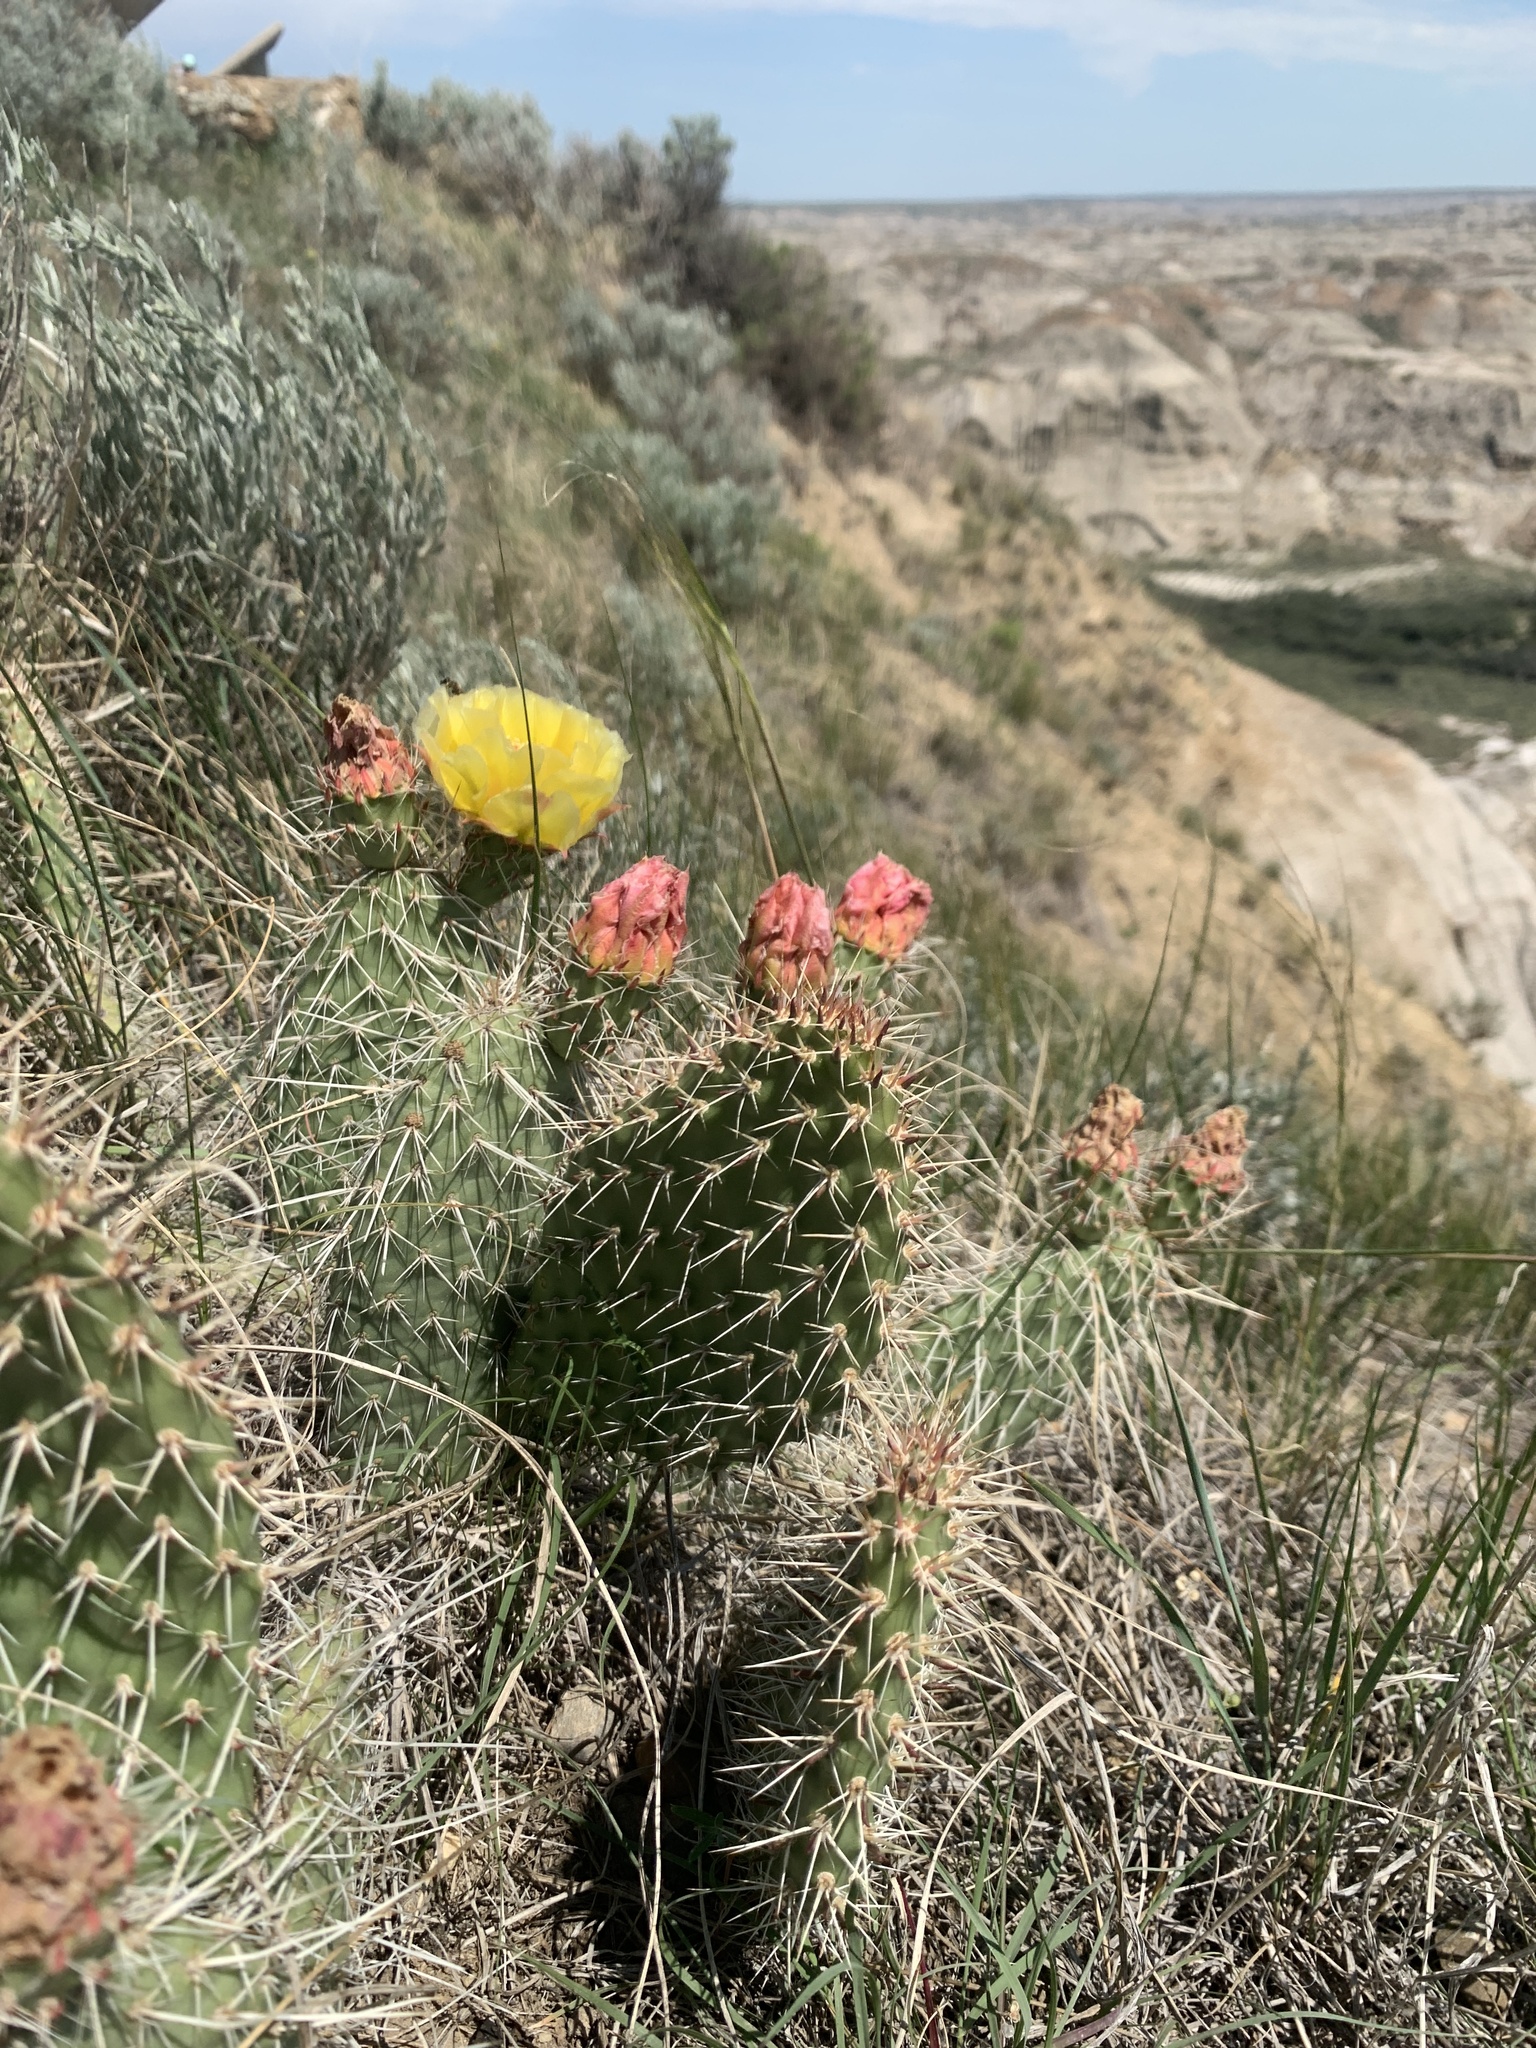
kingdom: Plantae
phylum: Tracheophyta
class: Magnoliopsida
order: Caryophyllales
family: Cactaceae
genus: Opuntia
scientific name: Opuntia polyacantha
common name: Plains prickly-pear
